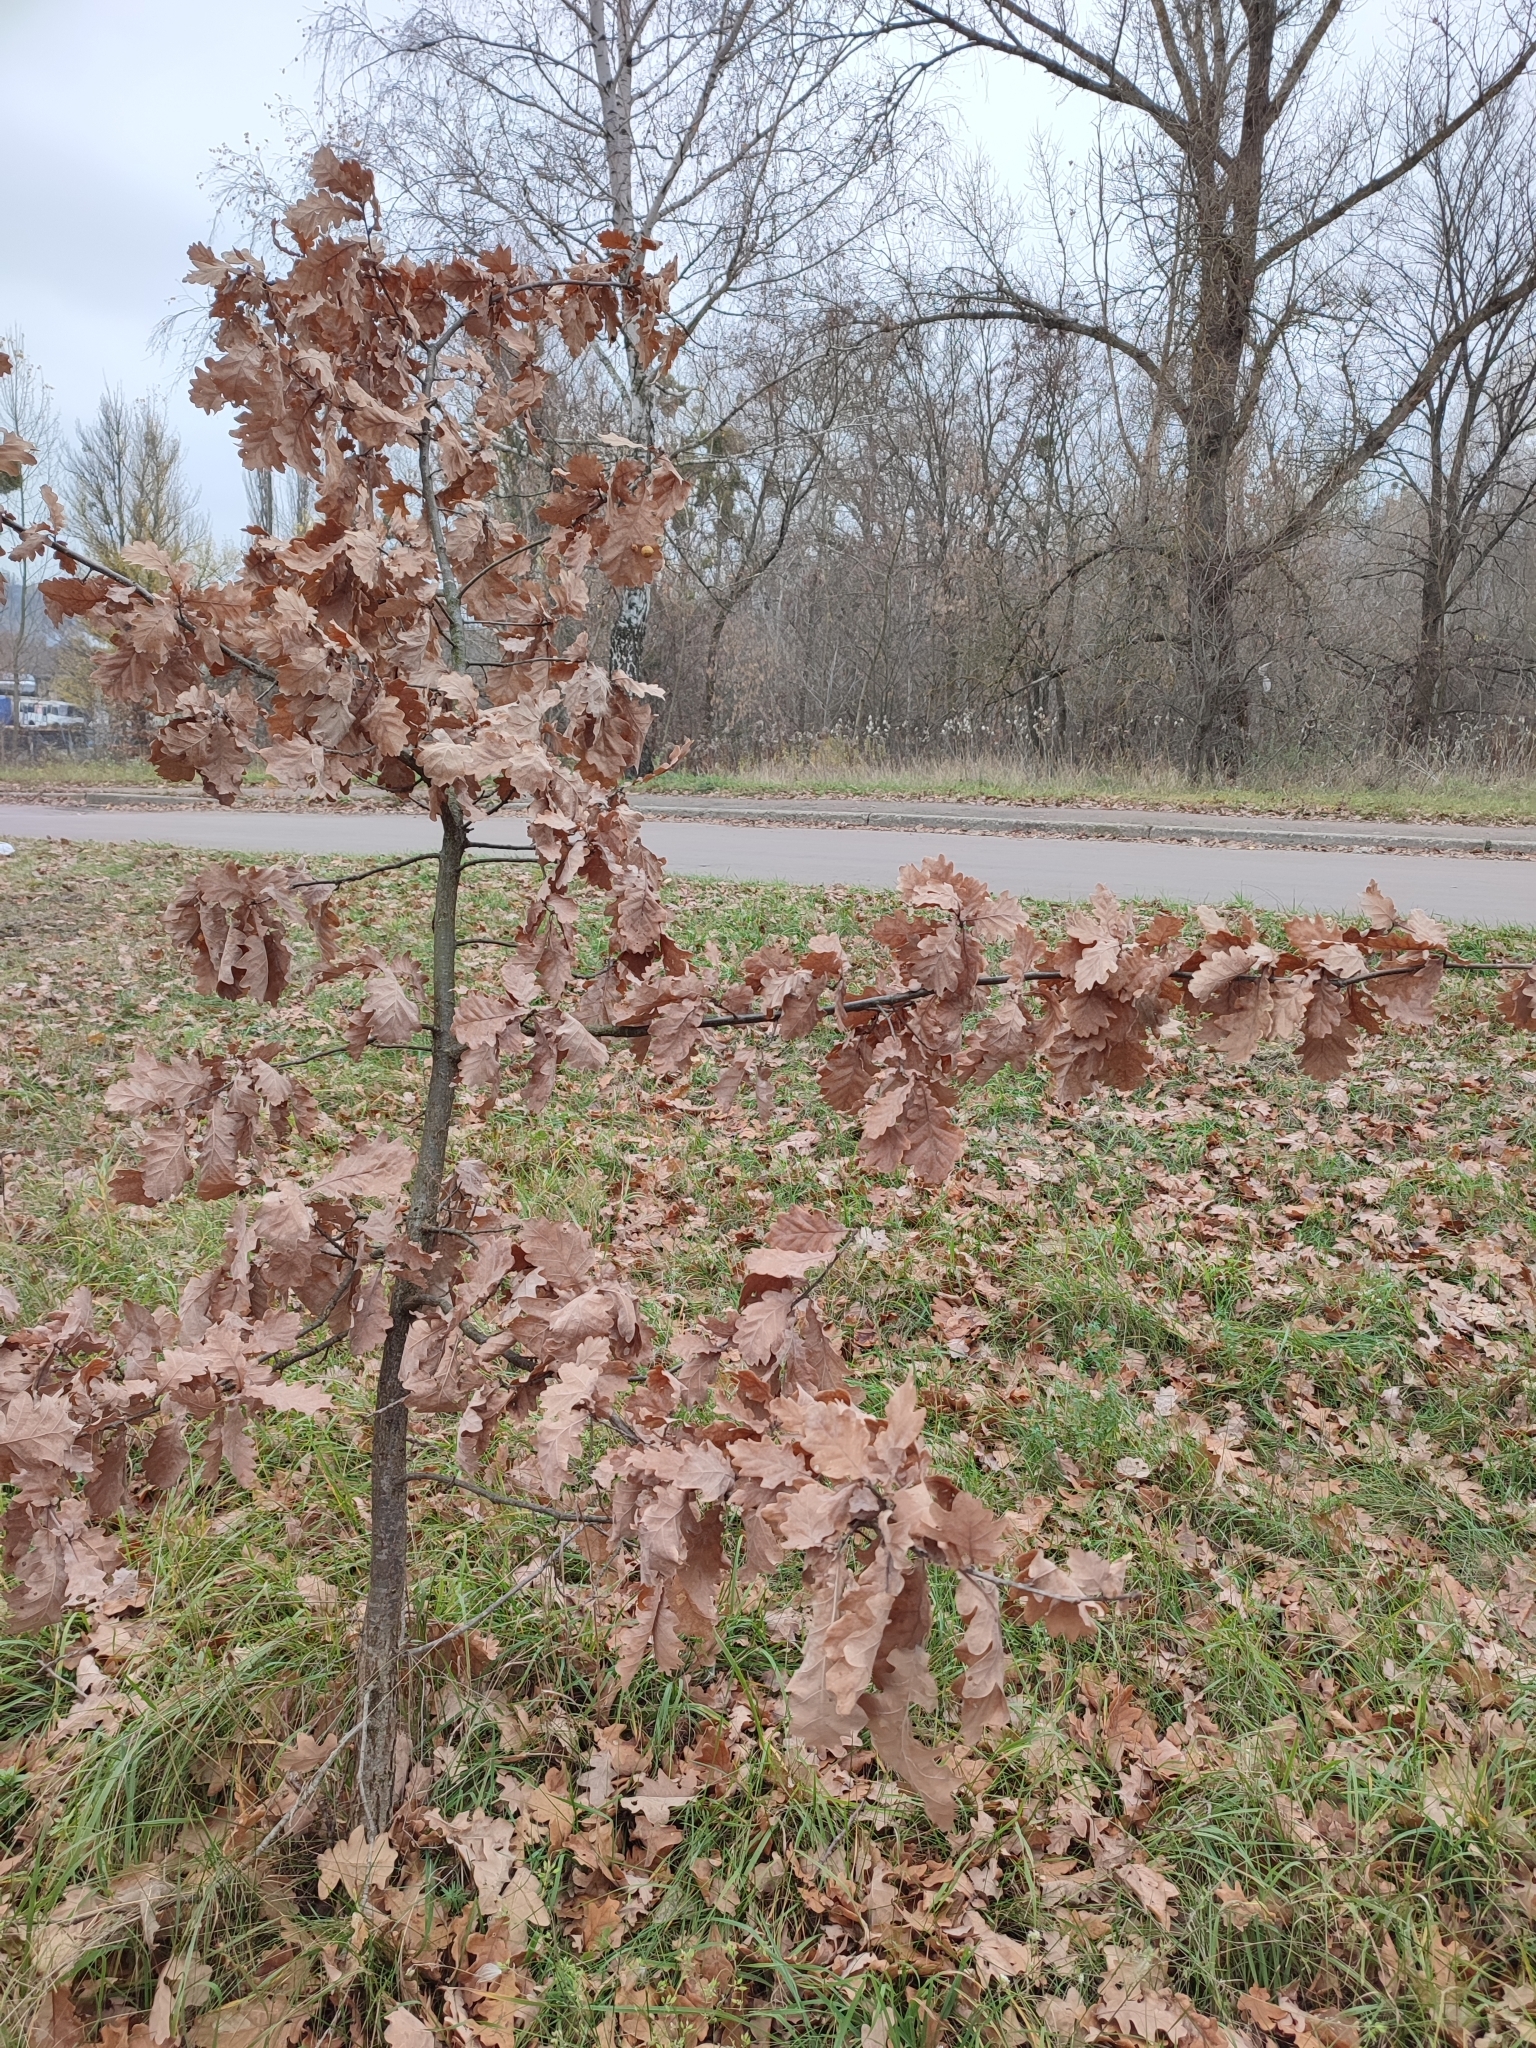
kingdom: Plantae
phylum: Tracheophyta
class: Magnoliopsida
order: Fagales
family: Fagaceae
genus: Quercus
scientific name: Quercus robur
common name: Pedunculate oak
